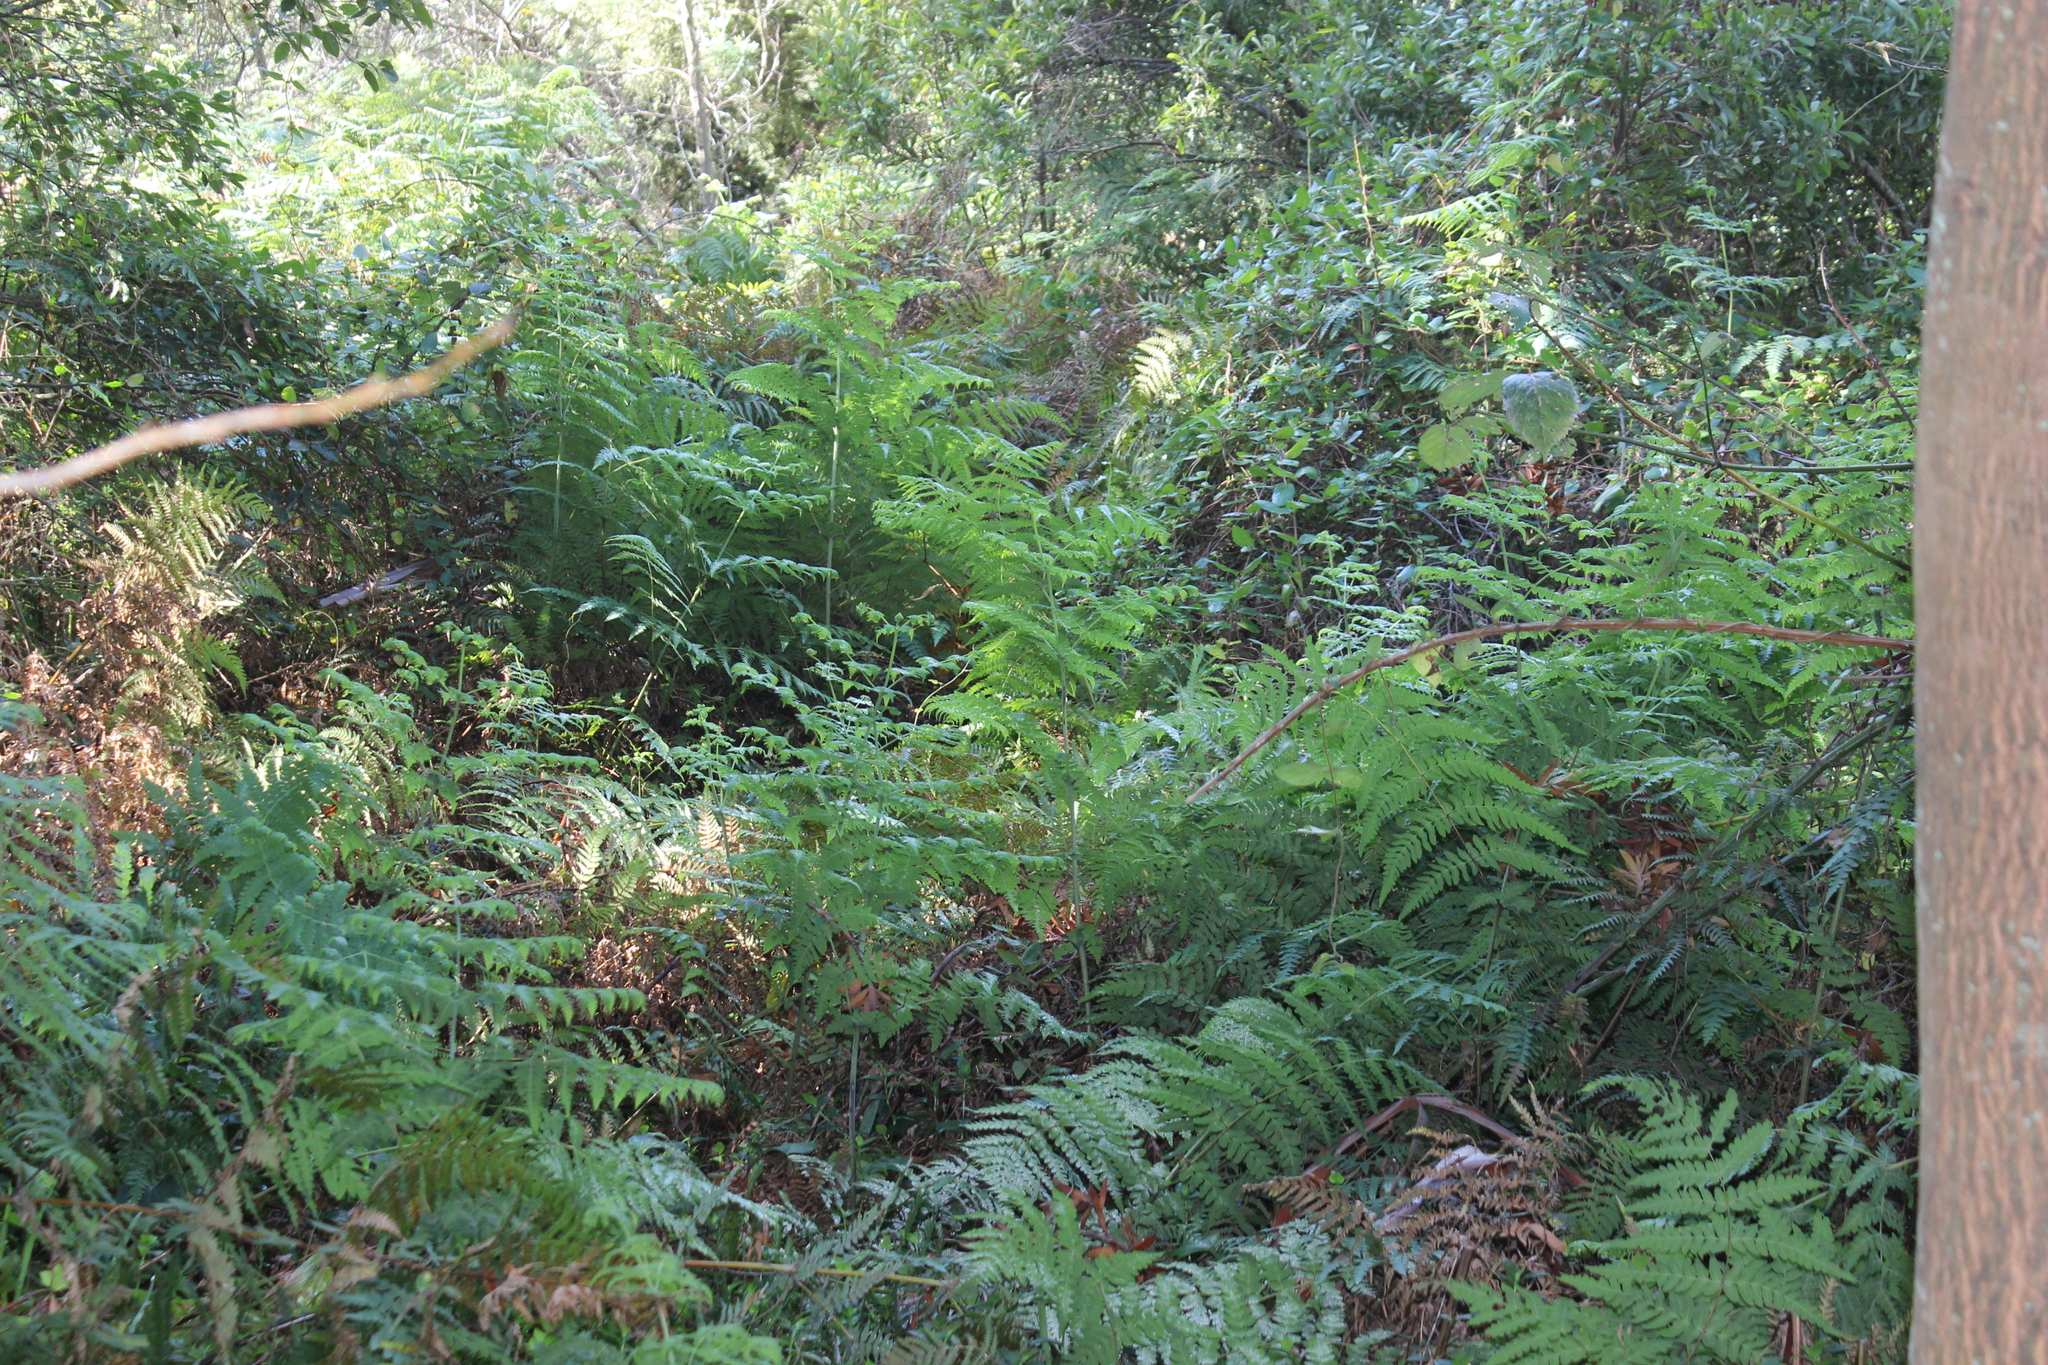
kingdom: Plantae
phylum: Tracheophyta
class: Polypodiopsida
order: Polypodiales
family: Dennstaedtiaceae
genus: Histiopteris
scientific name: Histiopteris incisa
